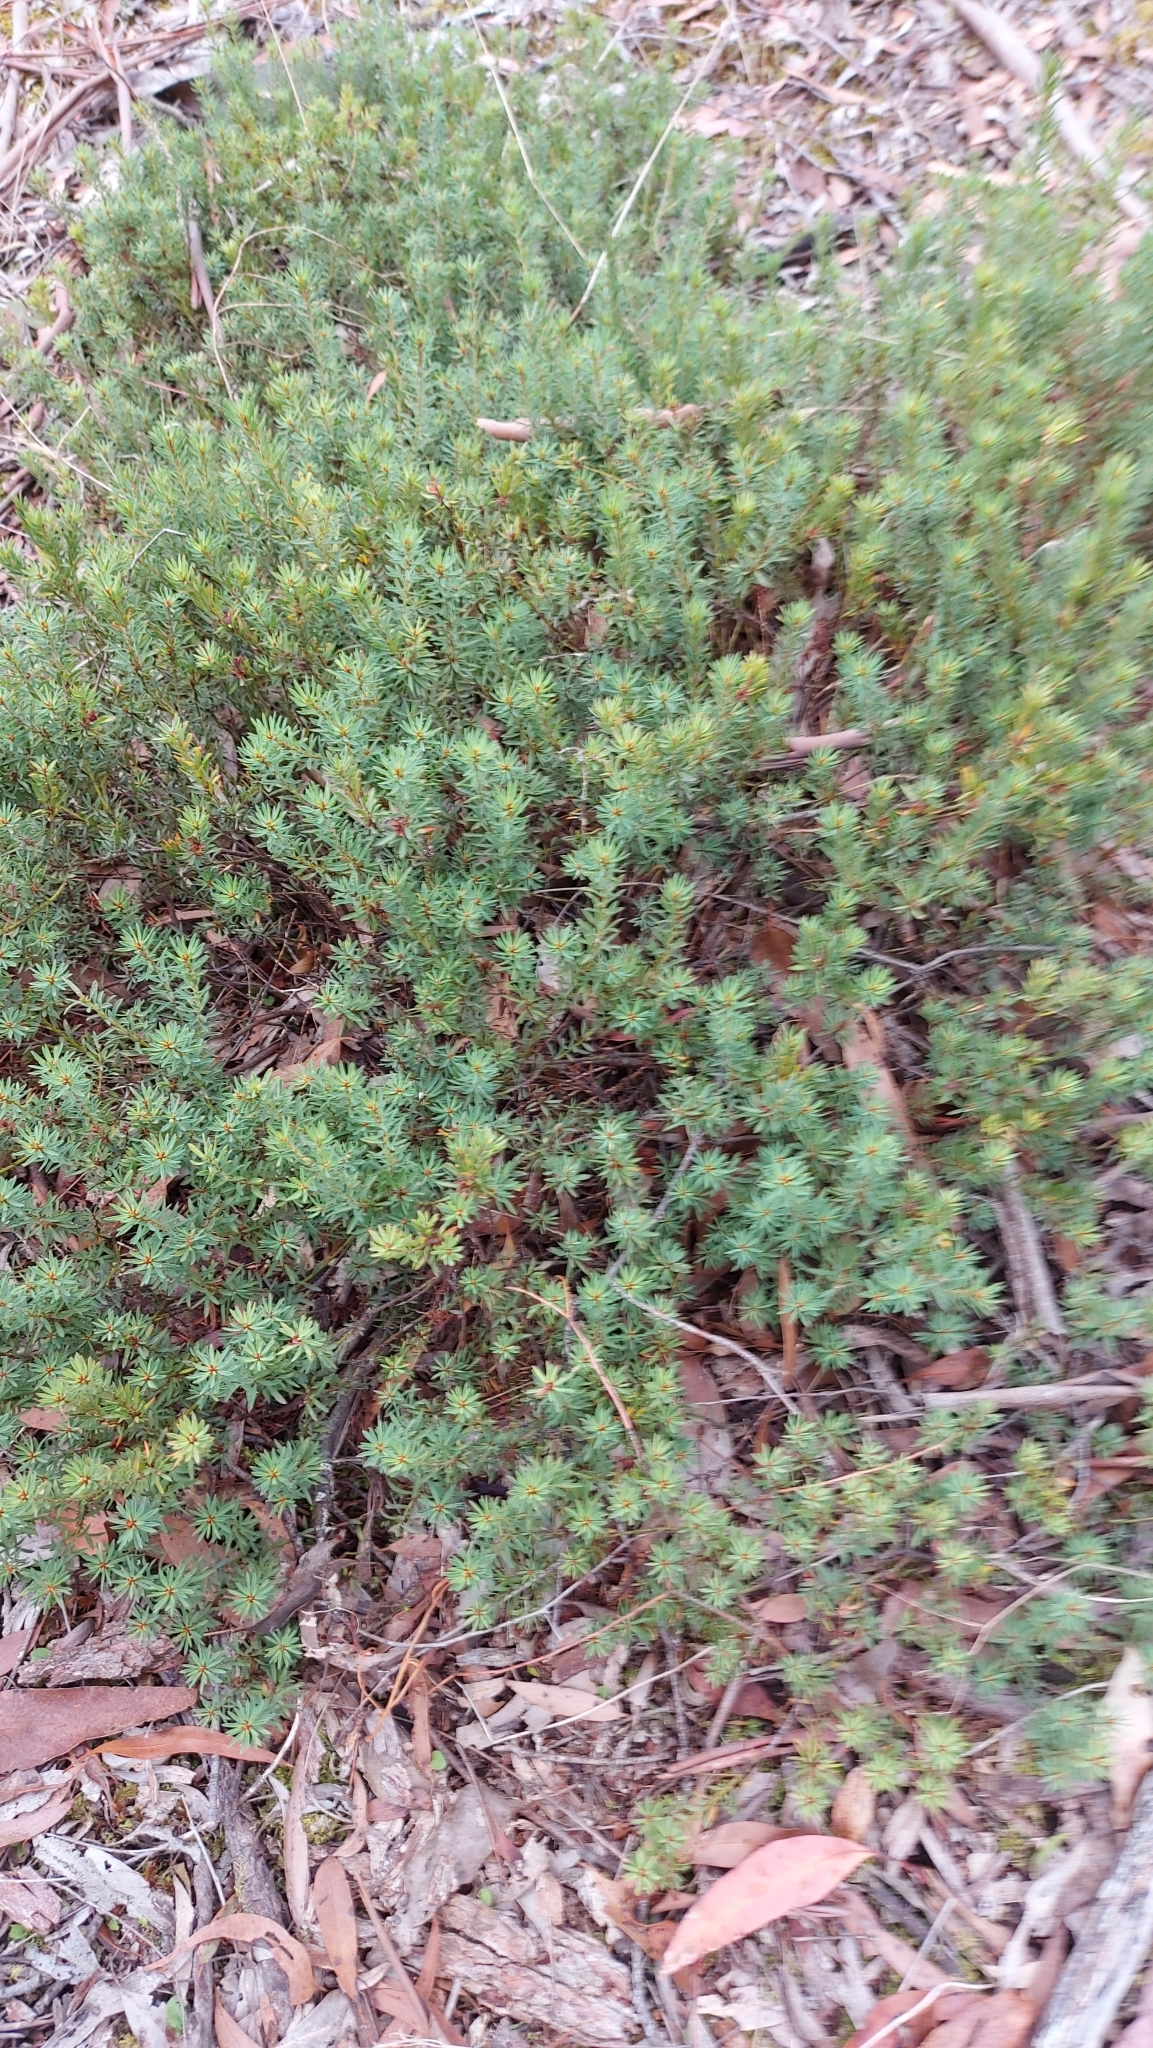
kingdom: Plantae
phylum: Tracheophyta
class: Magnoliopsida
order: Fabales
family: Fabaceae
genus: Pultenaea
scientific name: Pultenaea humilis
